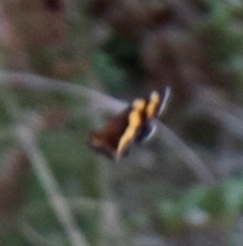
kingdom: Animalia
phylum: Arthropoda
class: Insecta
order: Lepidoptera
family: Nymphalidae
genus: Meneris
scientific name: Meneris Aeropetes tulbaghia
